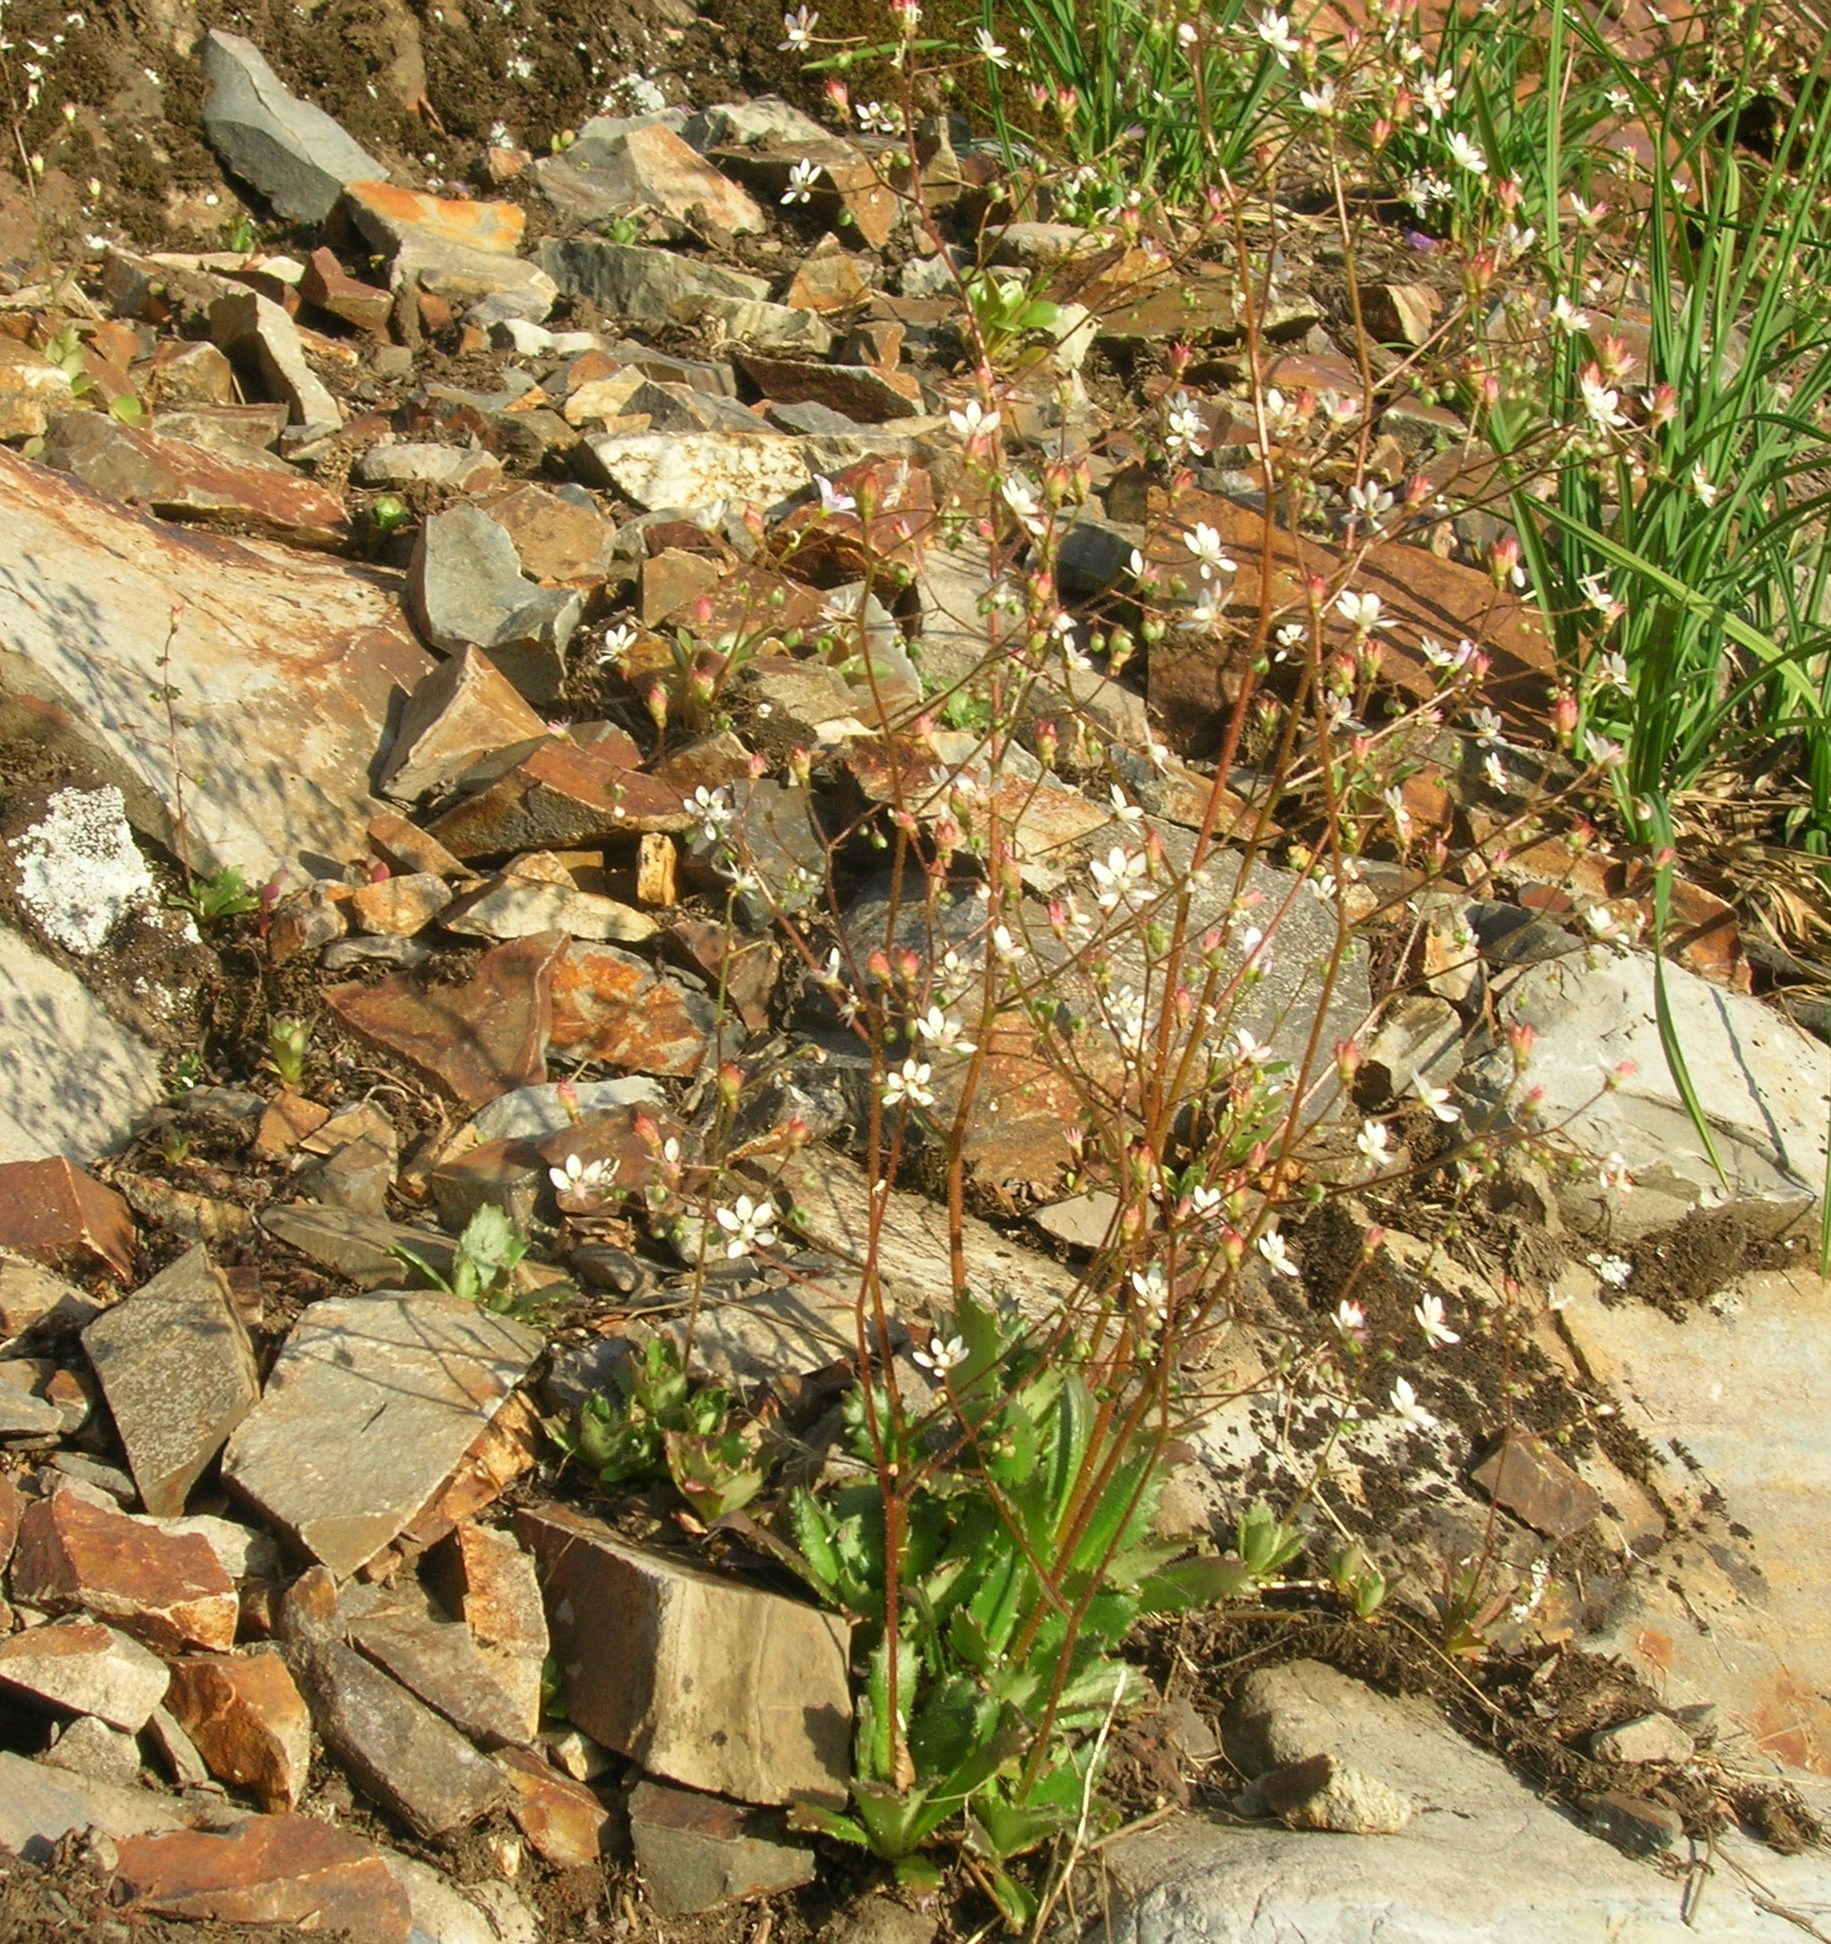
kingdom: Plantae
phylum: Tracheophyta
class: Magnoliopsida
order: Saxifragales
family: Saxifragaceae
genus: Micranthes
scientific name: Micranthes ferruginea
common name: Rusty saxifrage
